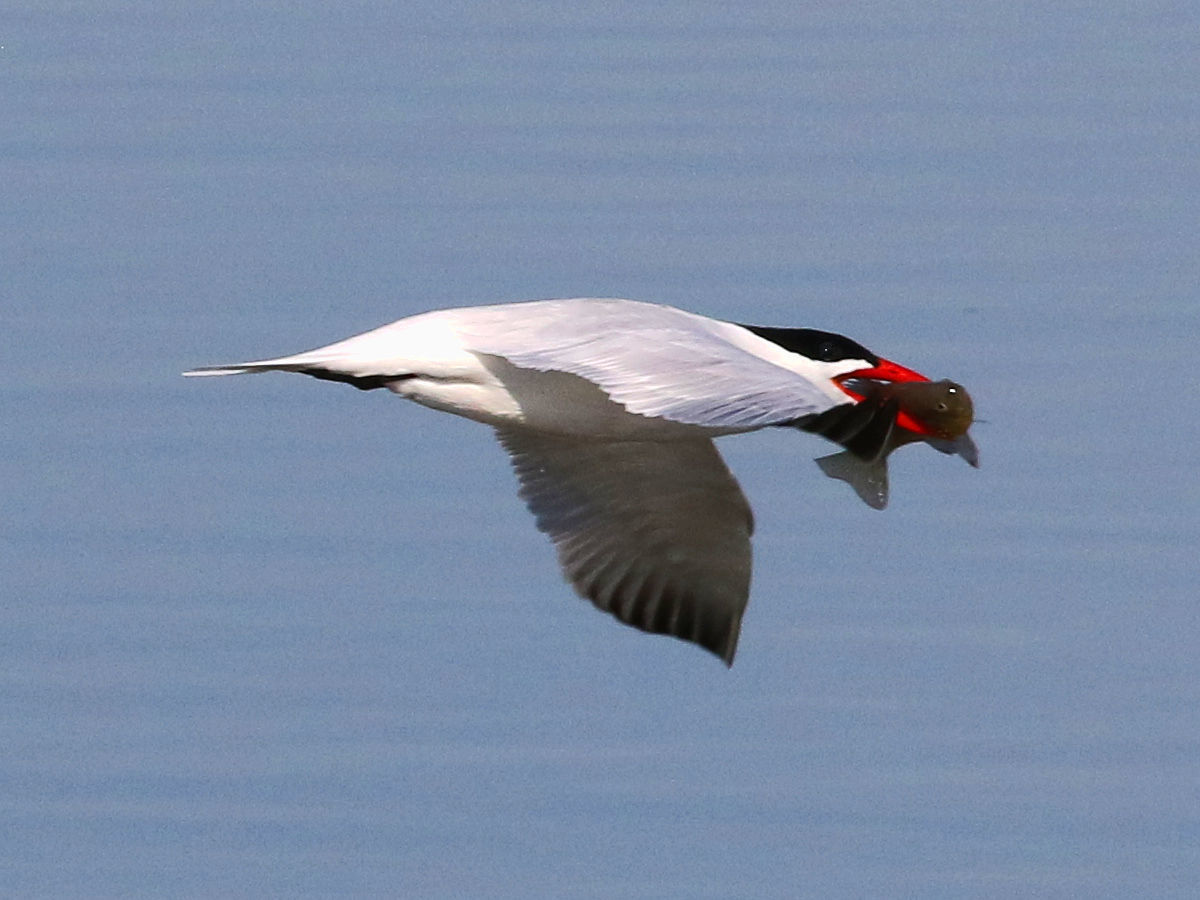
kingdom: Animalia
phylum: Chordata
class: Aves
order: Charadriiformes
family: Laridae
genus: Hydroprogne
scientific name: Hydroprogne caspia
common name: Caspian tern
